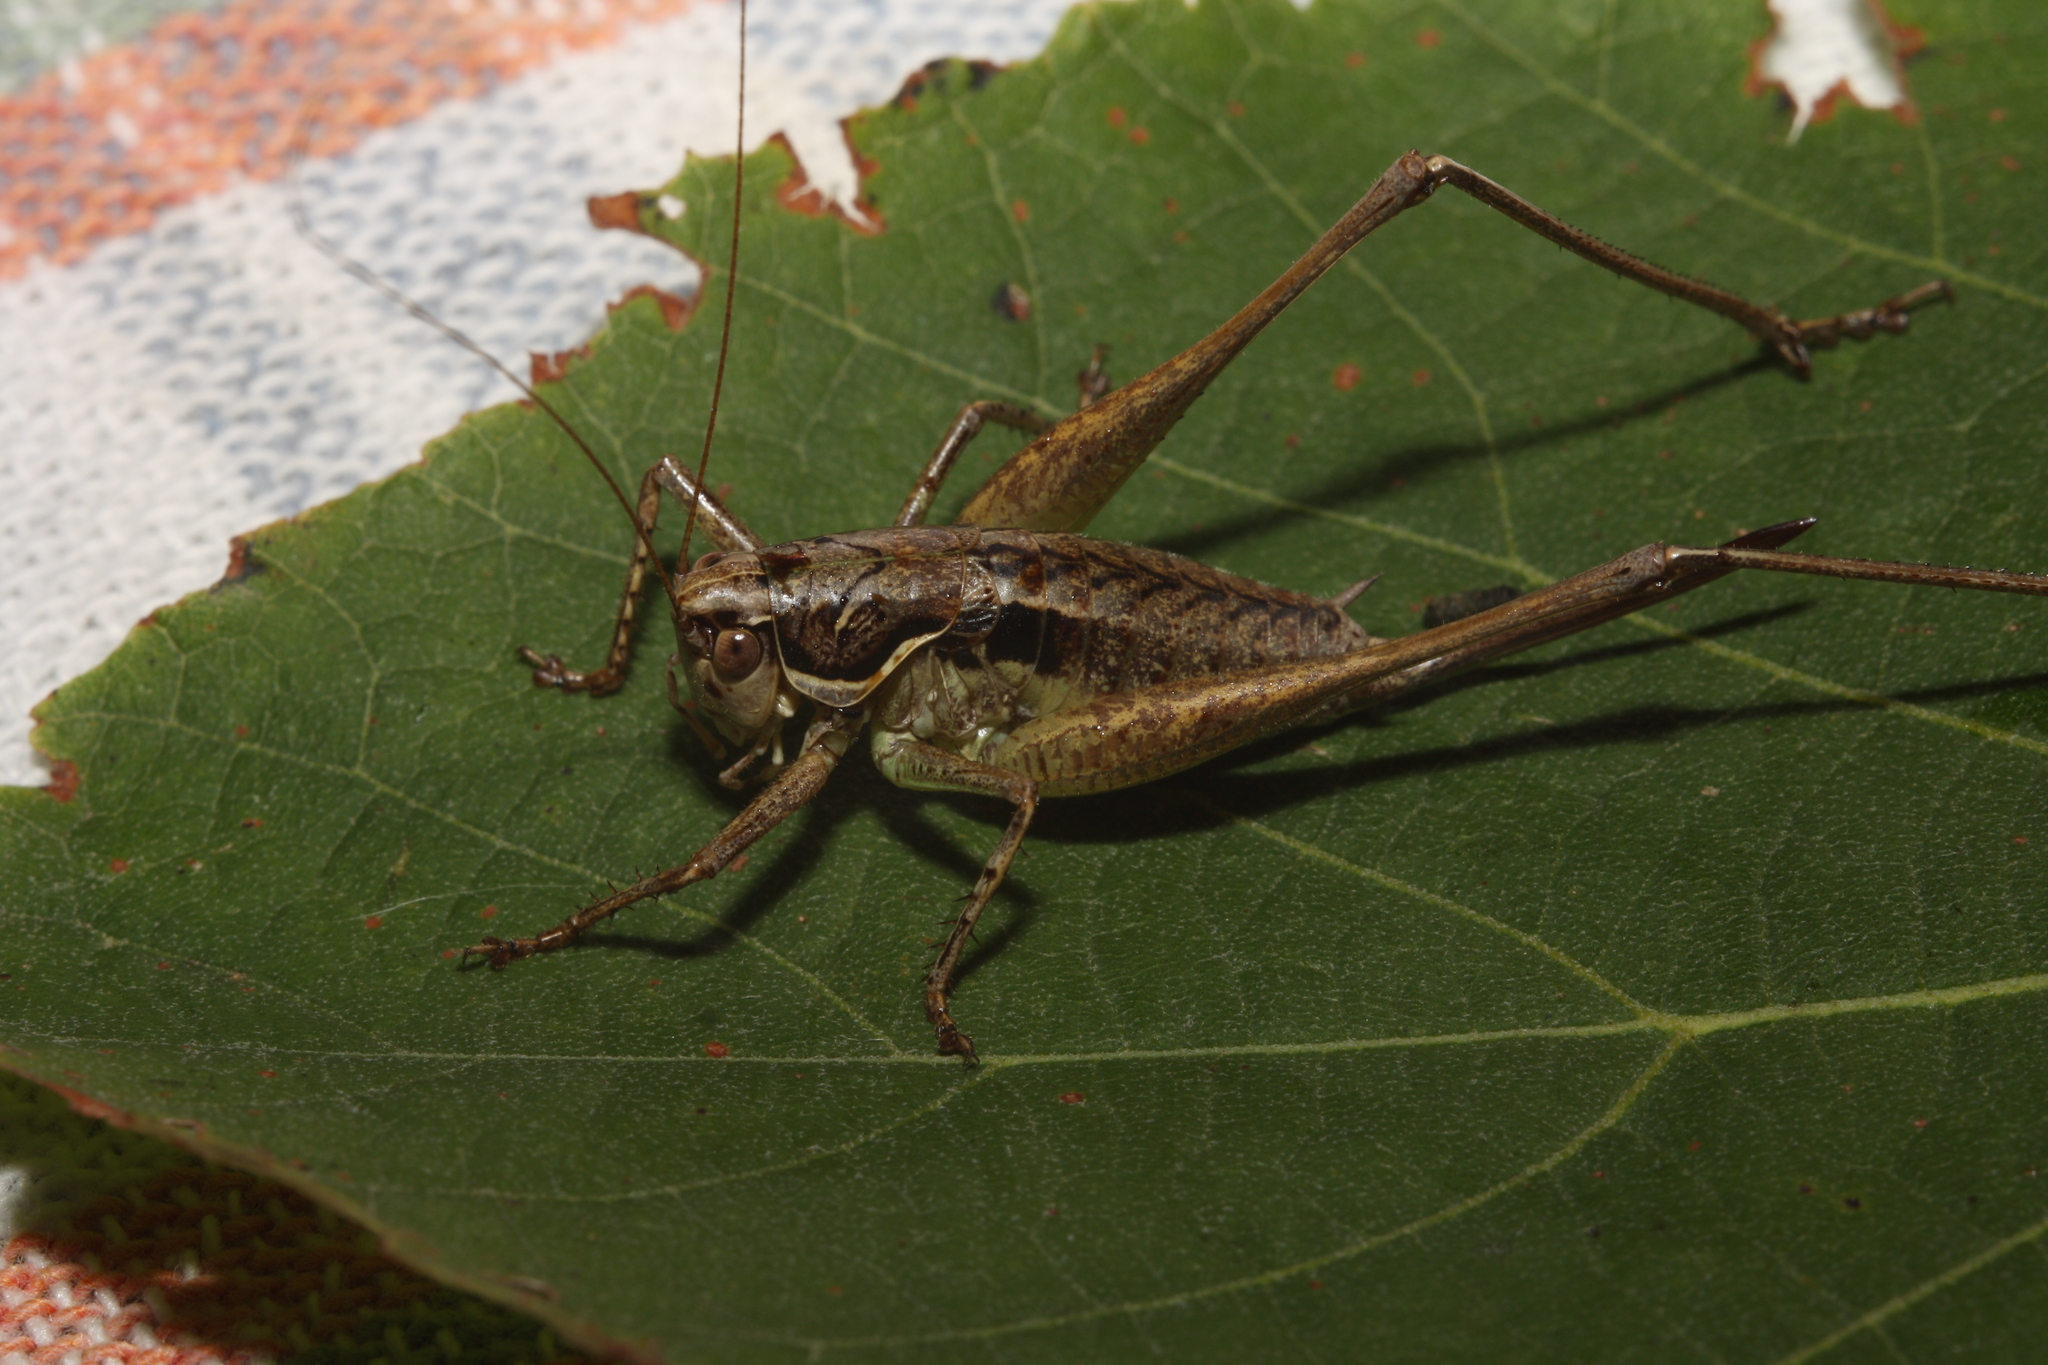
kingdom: Animalia
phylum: Arthropoda
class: Insecta
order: Orthoptera
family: Tettigoniidae
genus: Pachytrachis
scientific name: Pachytrachis gracilis
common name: Graceful bush-cricket
